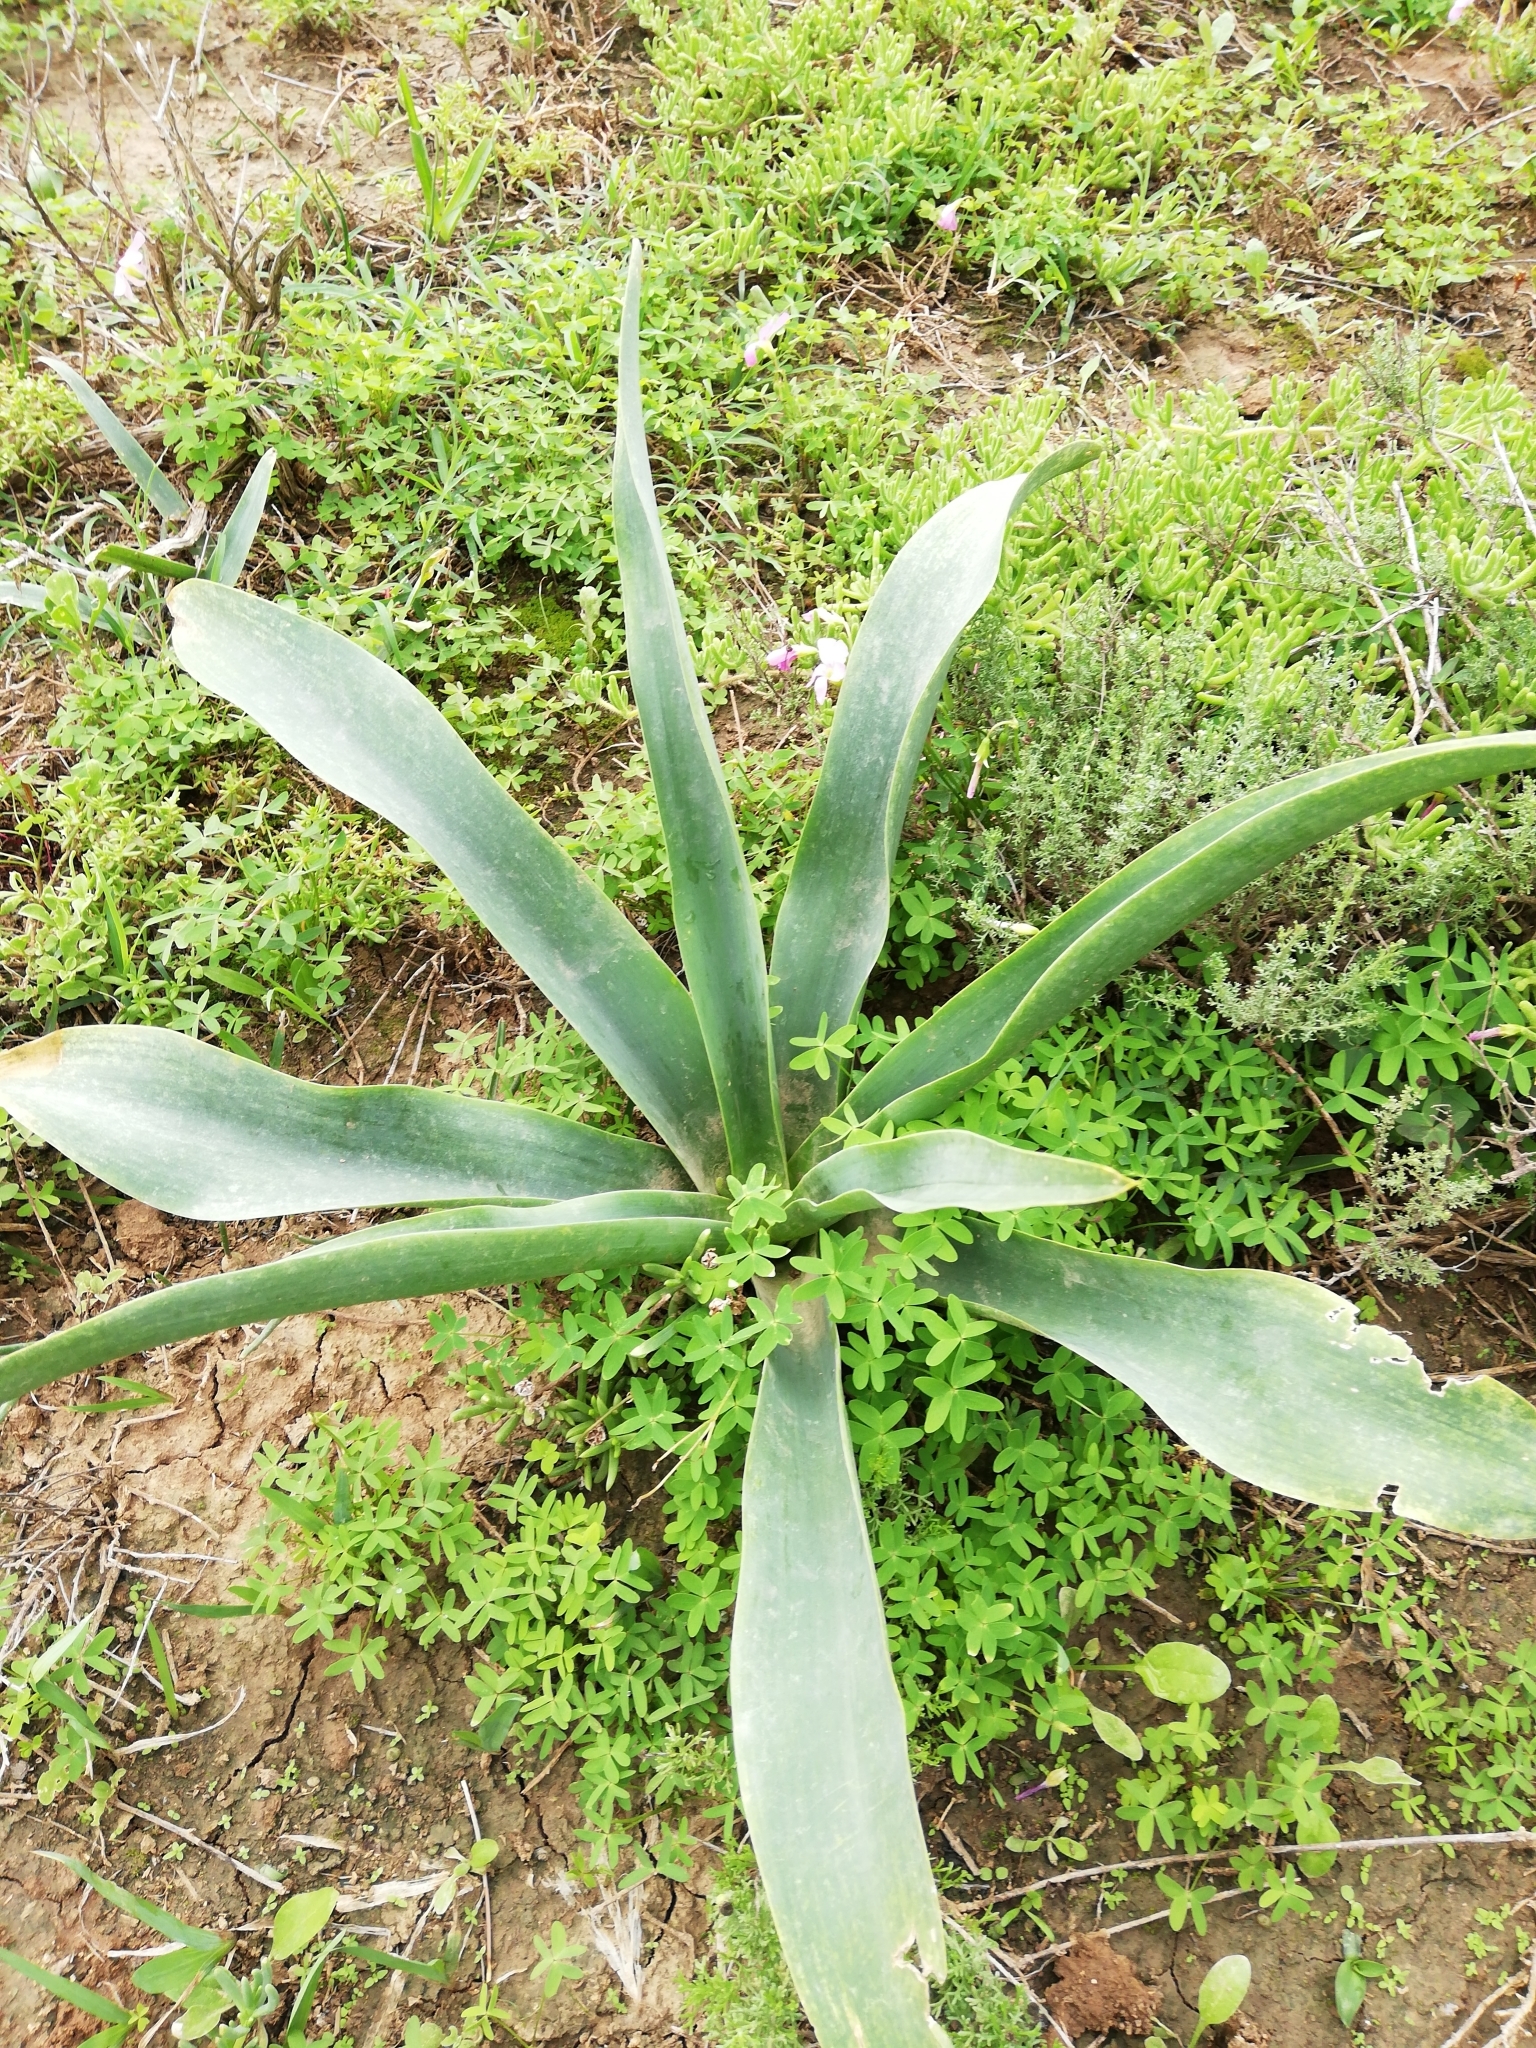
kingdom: Plantae
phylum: Tracheophyta
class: Liliopsida
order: Asparagales
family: Asparagaceae
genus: Drimia
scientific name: Drimia altissima
